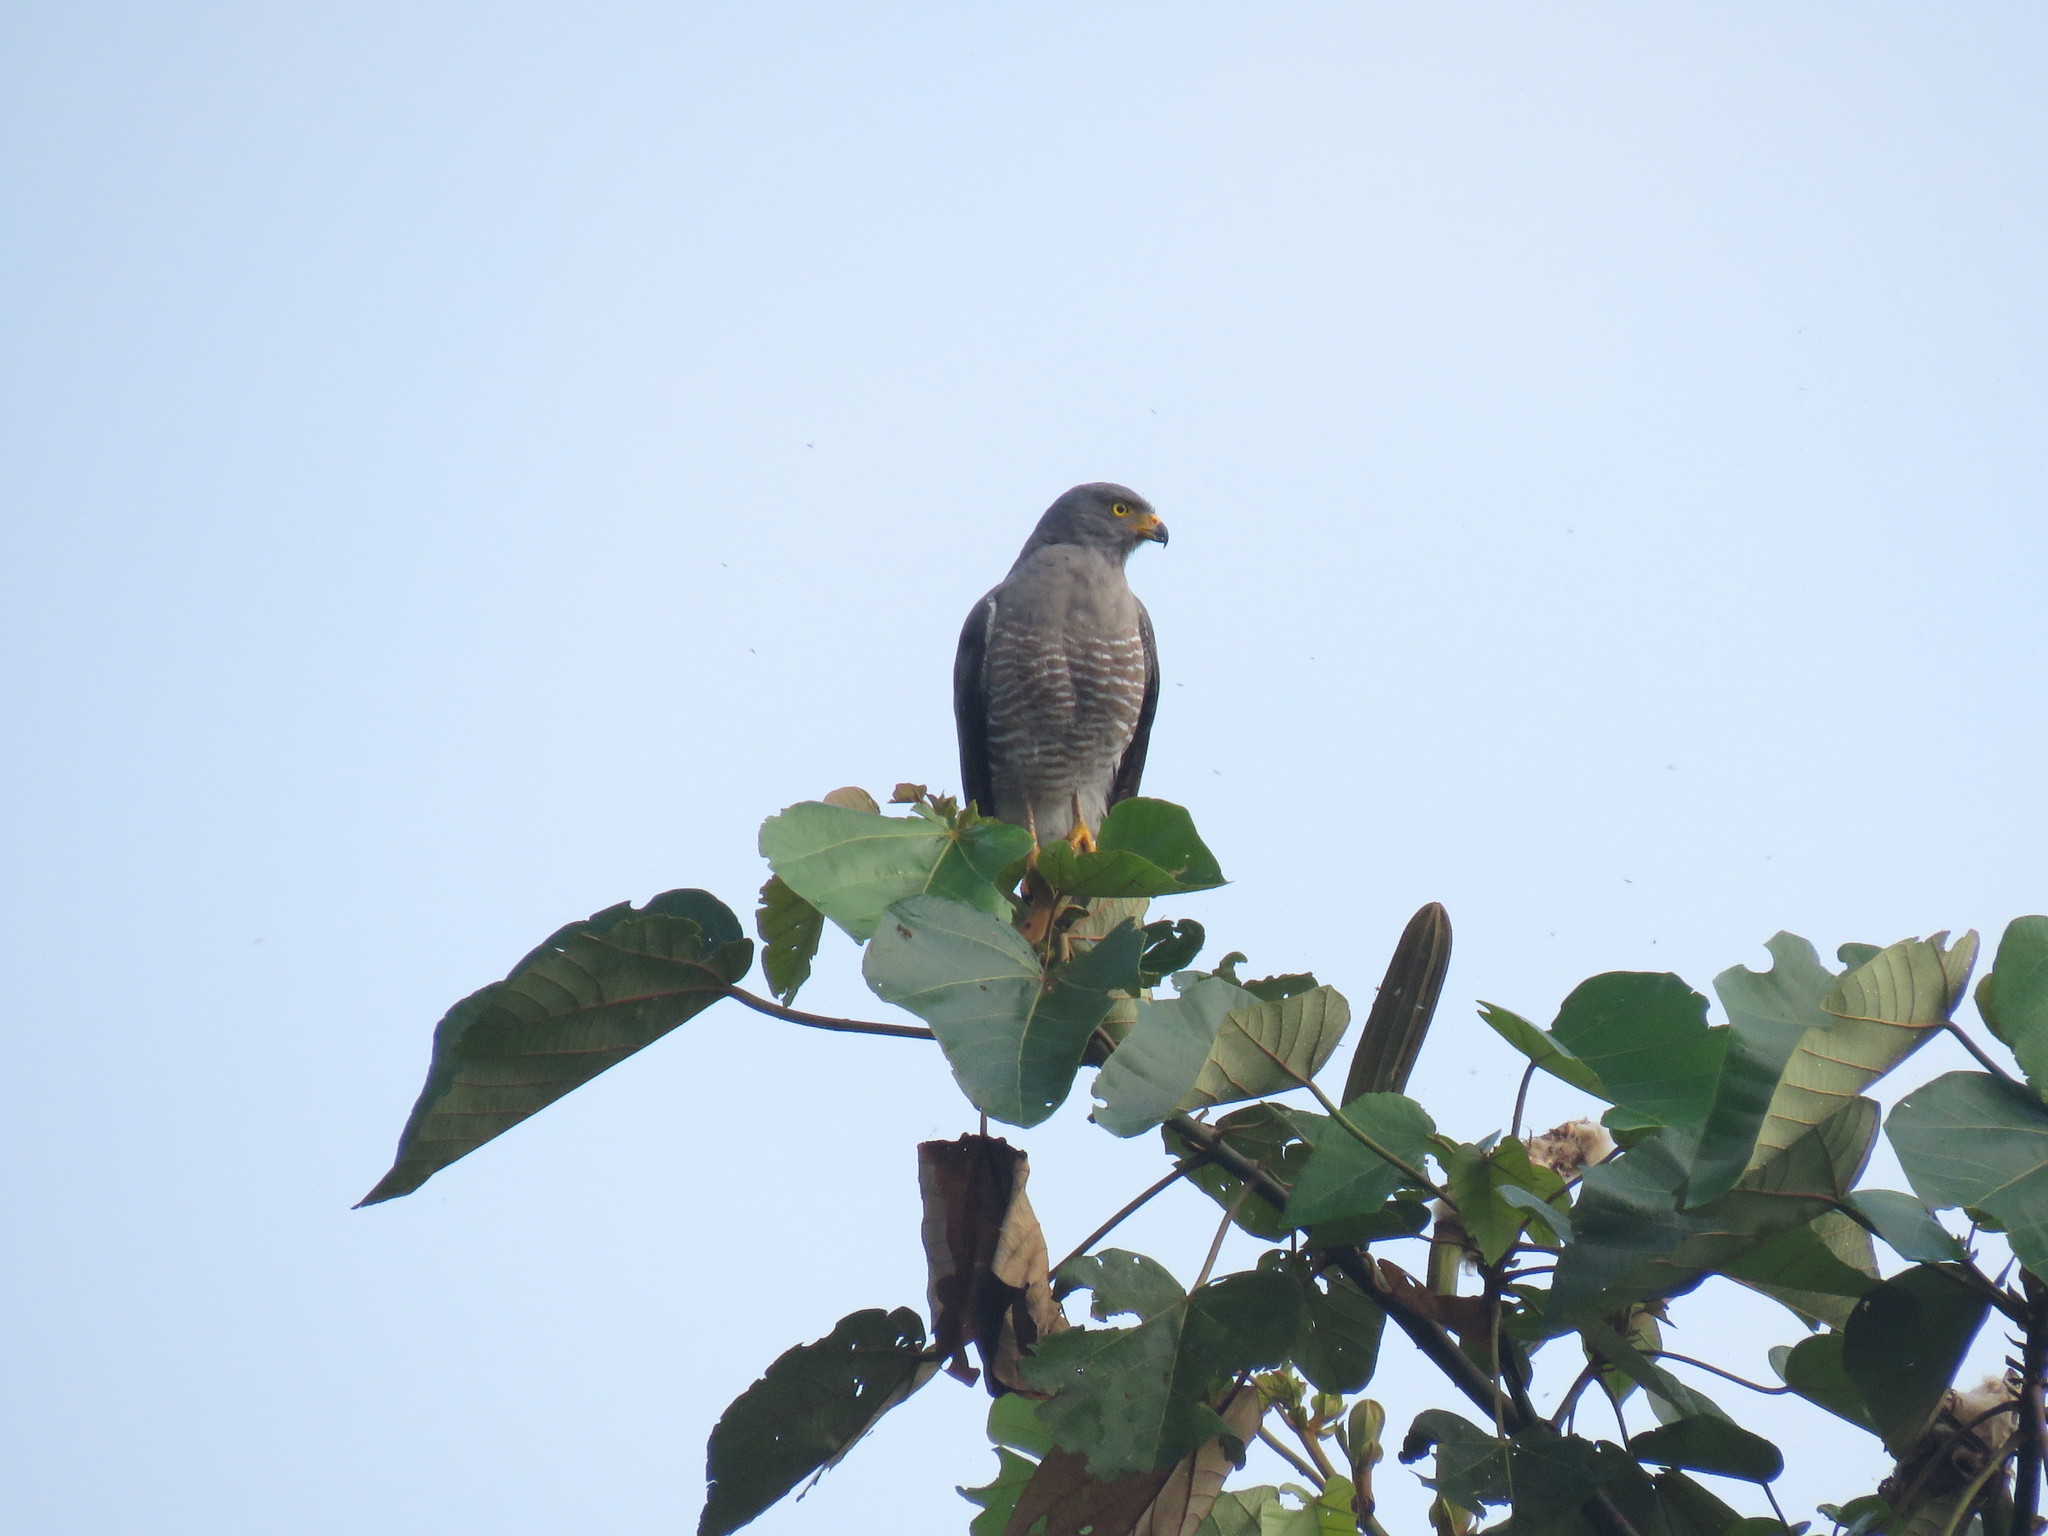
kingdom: Animalia
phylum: Chordata
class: Aves
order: Accipitriformes
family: Accipitridae
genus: Rupornis
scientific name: Rupornis magnirostris
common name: Roadside hawk
